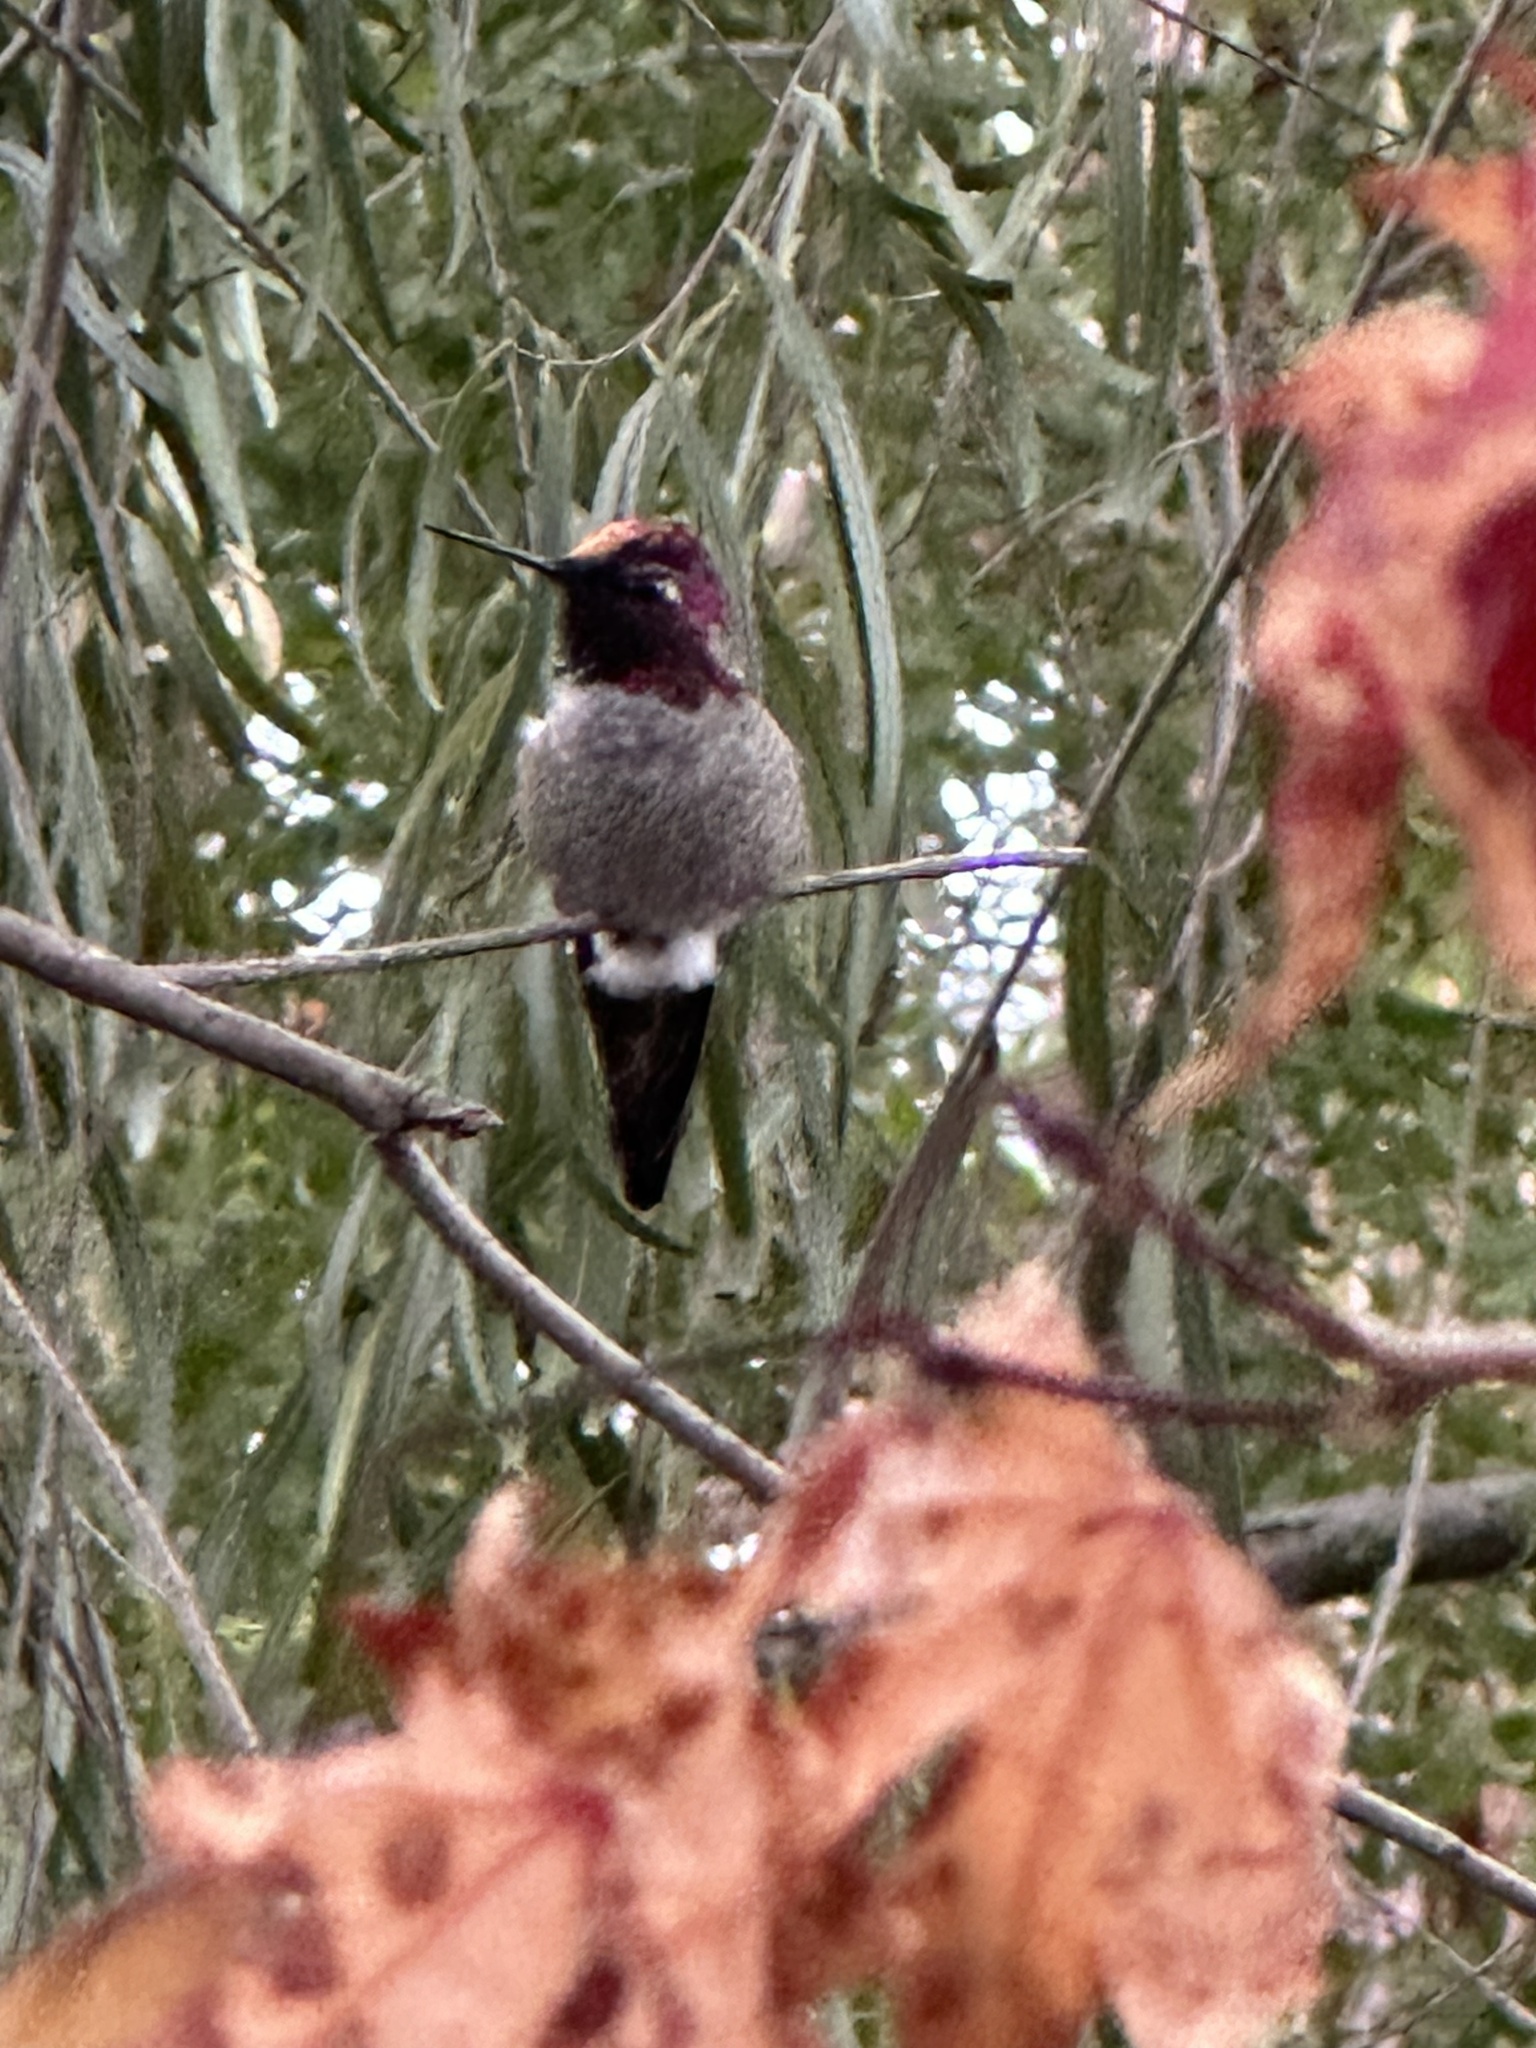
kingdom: Animalia
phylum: Chordata
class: Aves
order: Apodiformes
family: Trochilidae
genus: Calypte
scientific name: Calypte anna
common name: Anna's hummingbird
